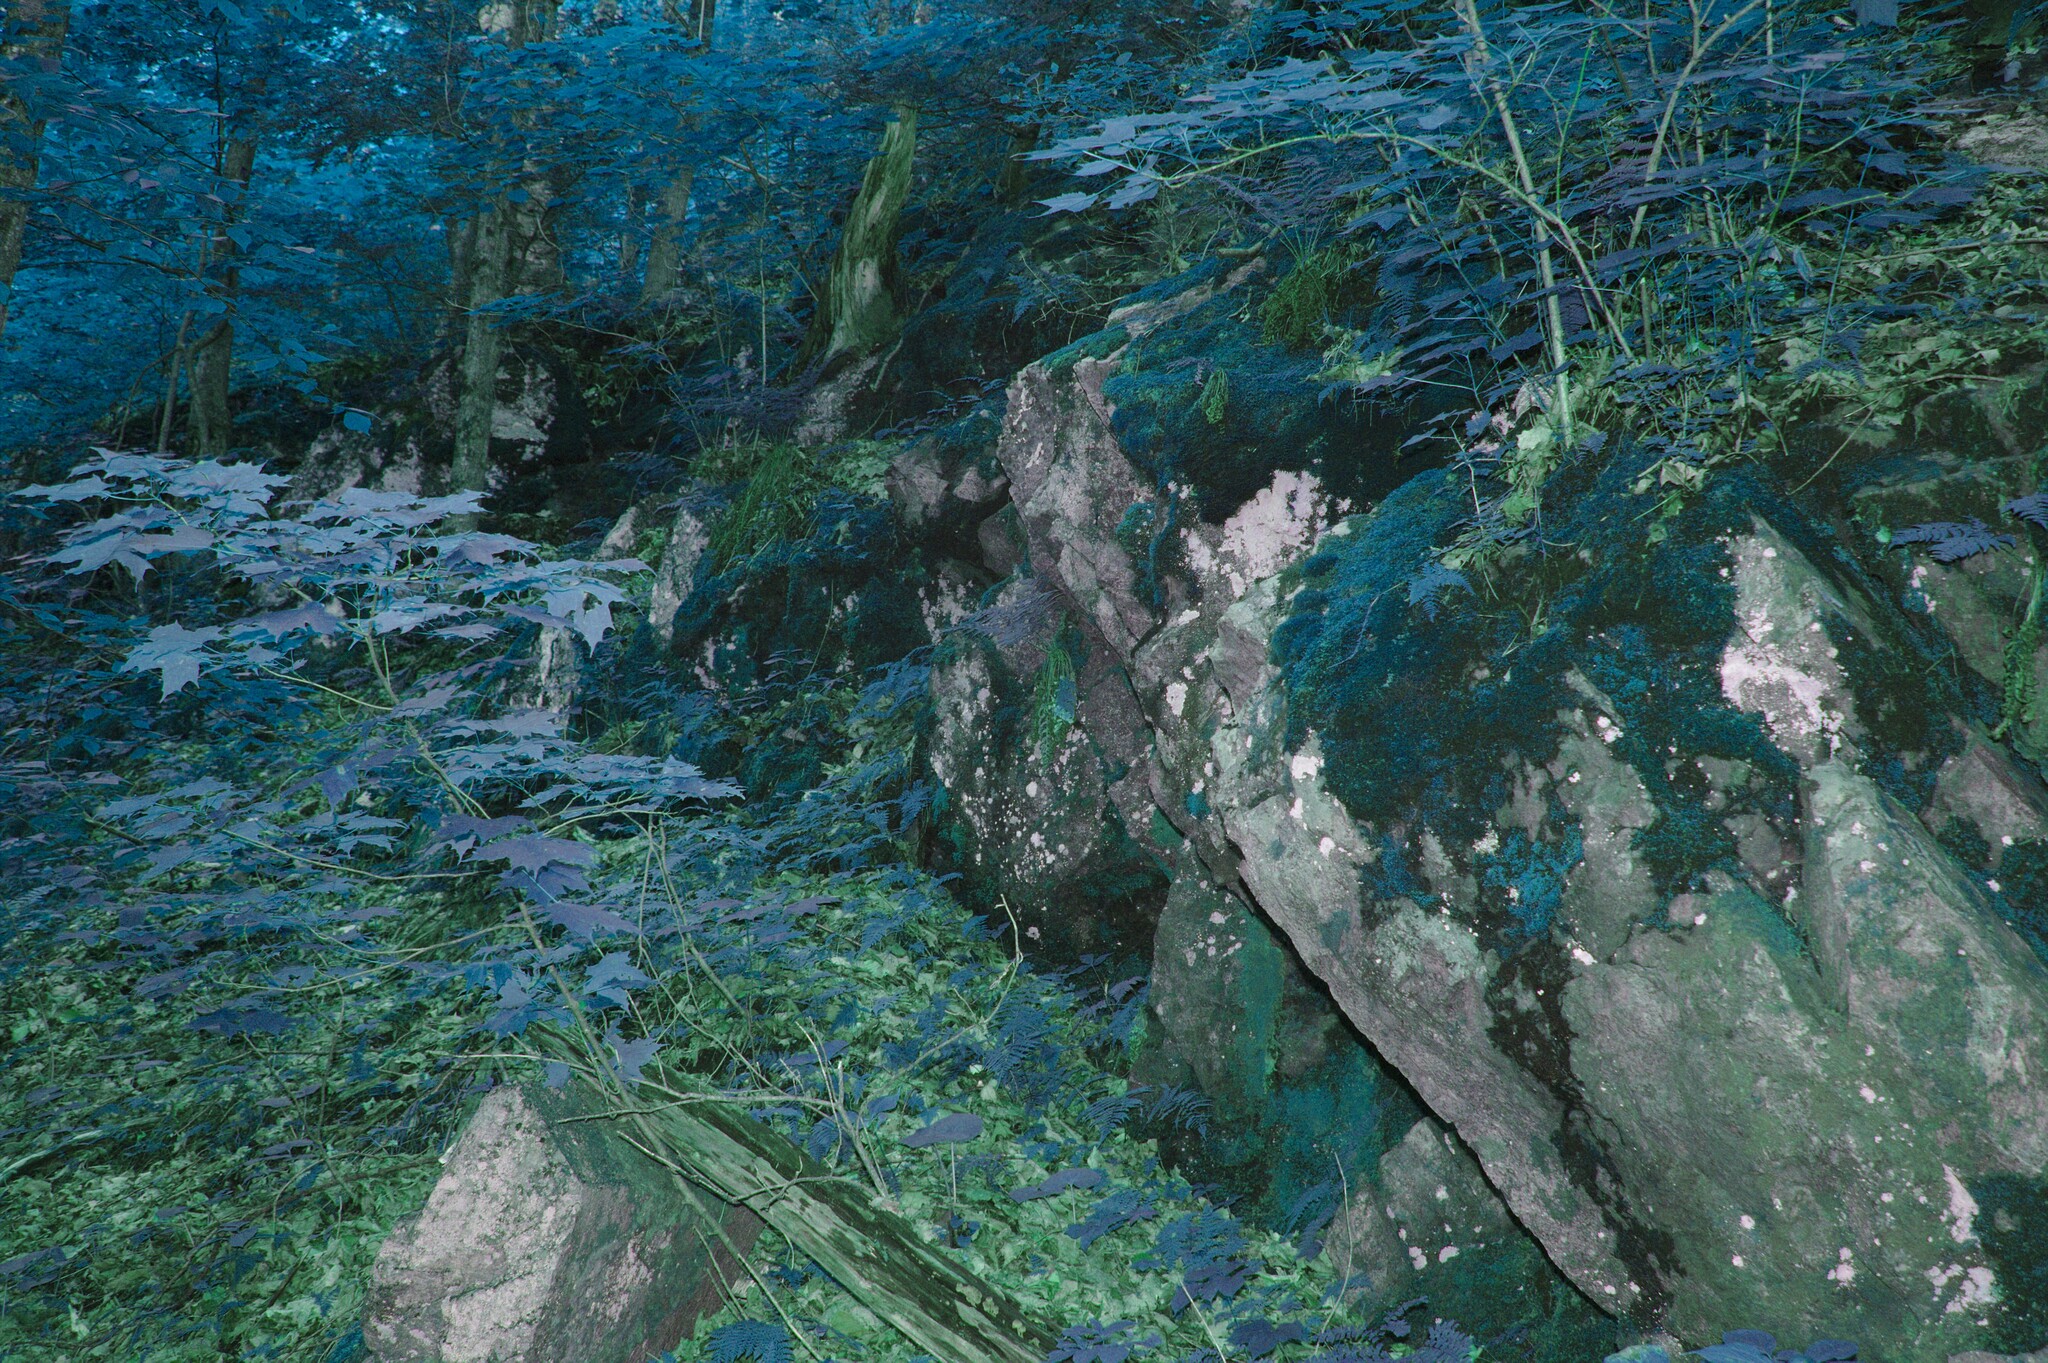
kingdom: Plantae
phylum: Tracheophyta
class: Magnoliopsida
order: Sapindales
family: Sapindaceae
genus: Acer
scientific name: Acer saccharum
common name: Sugar maple
